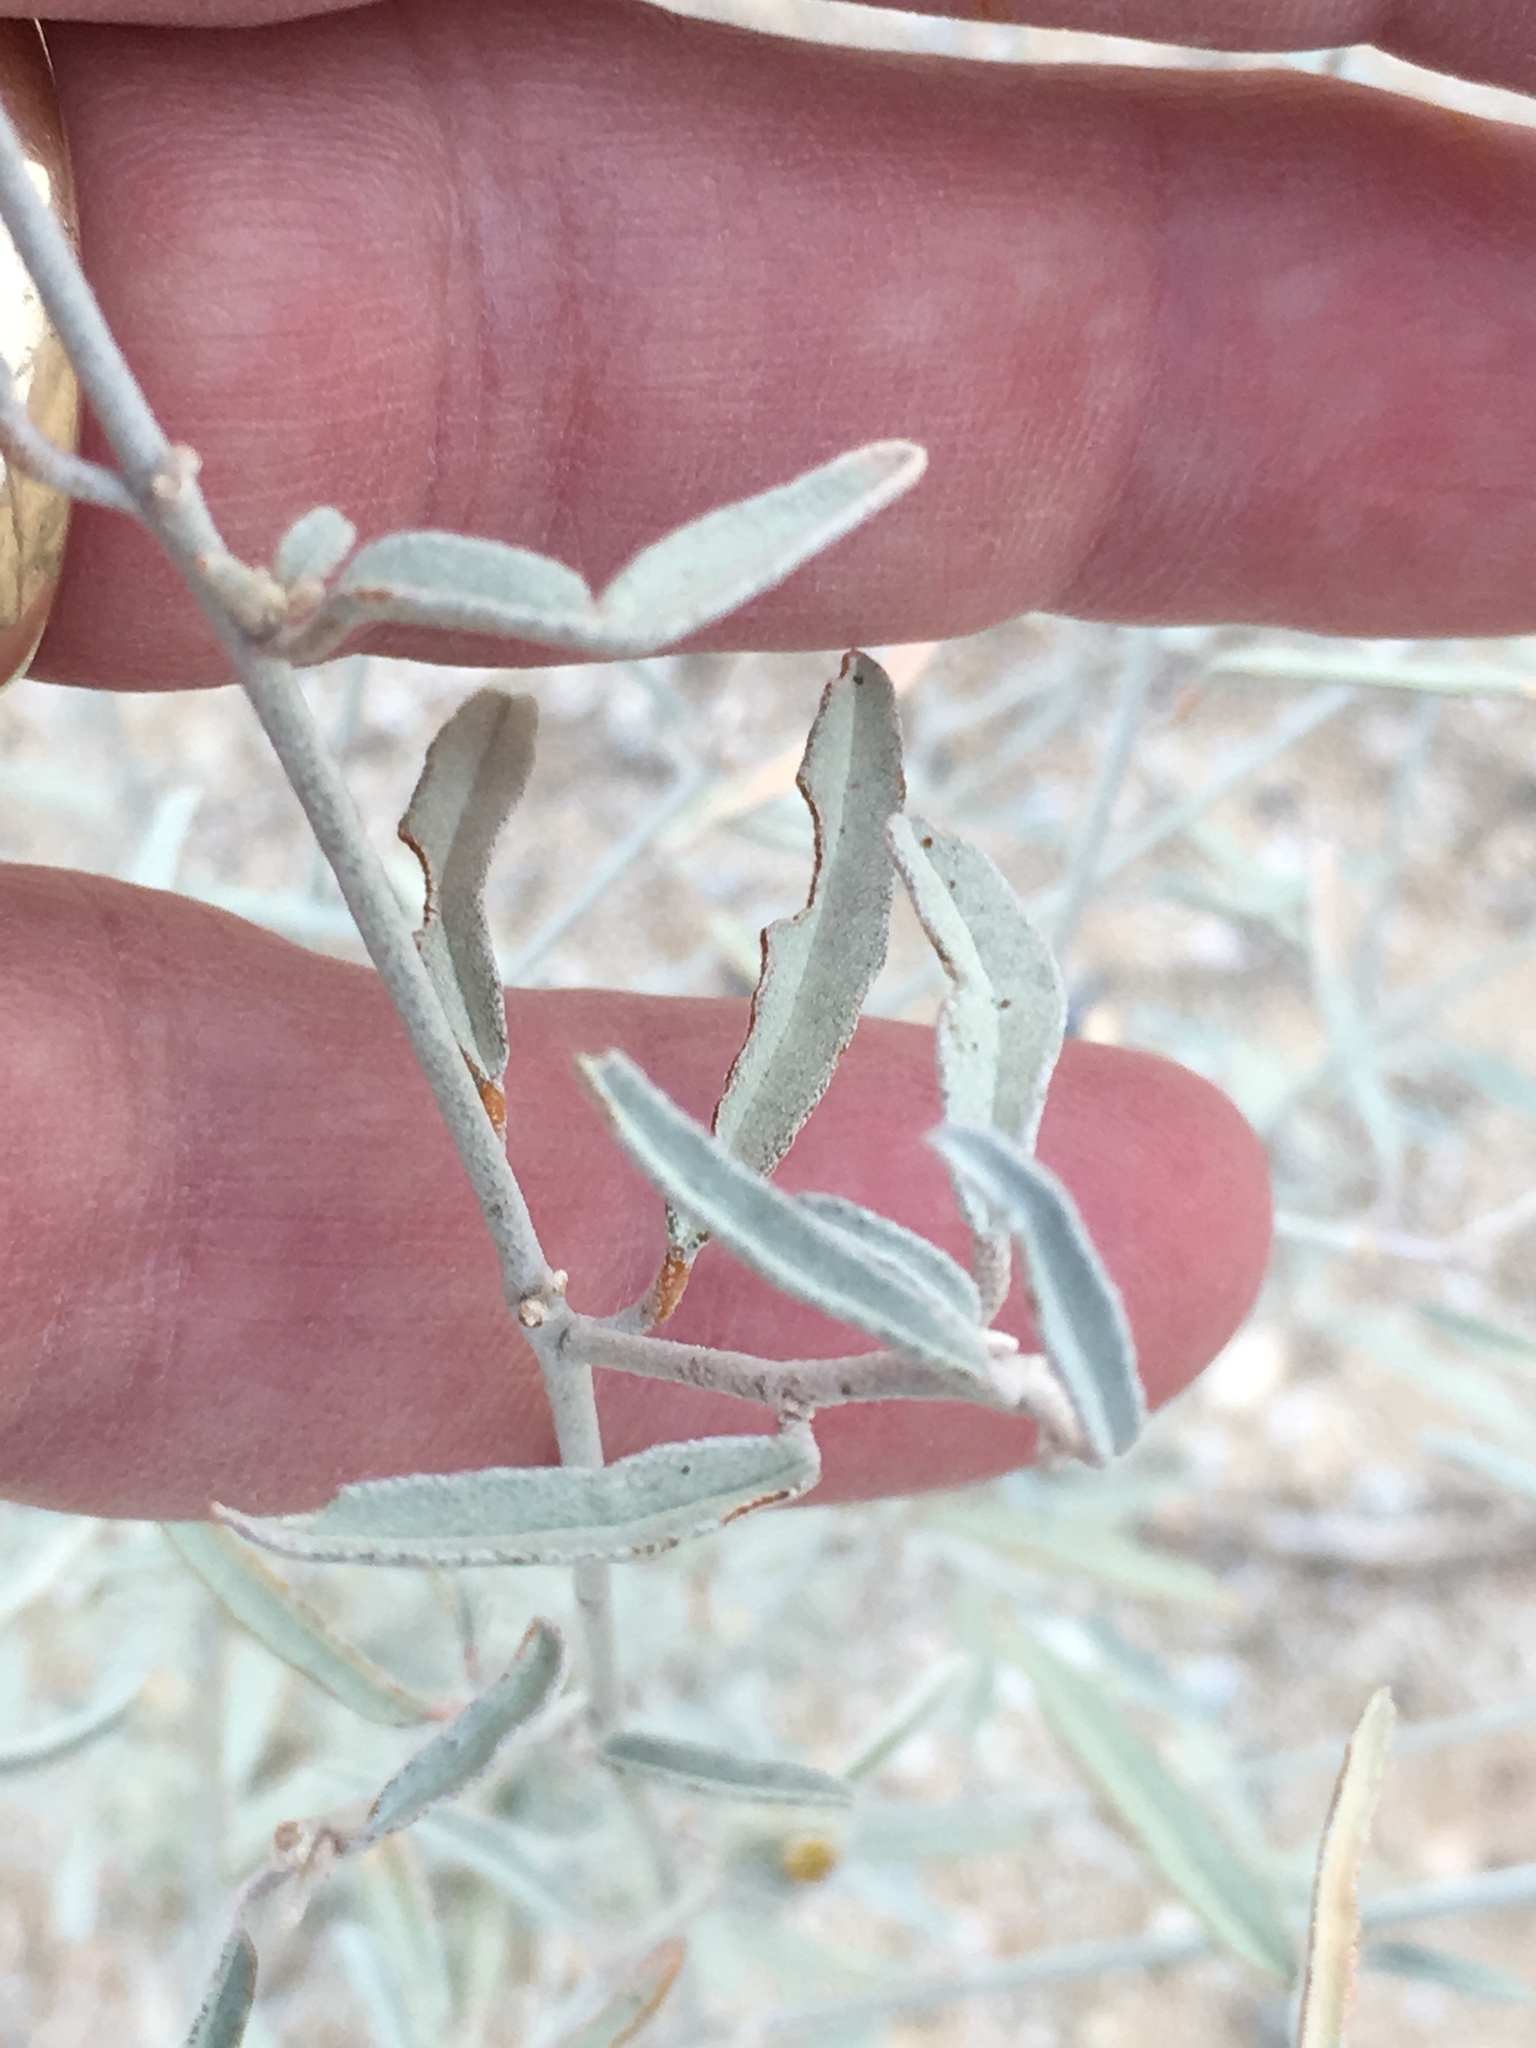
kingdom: Plantae
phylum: Tracheophyta
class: Magnoliopsida
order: Malpighiales
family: Euphorbiaceae
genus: Croton
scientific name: Croton californicus
